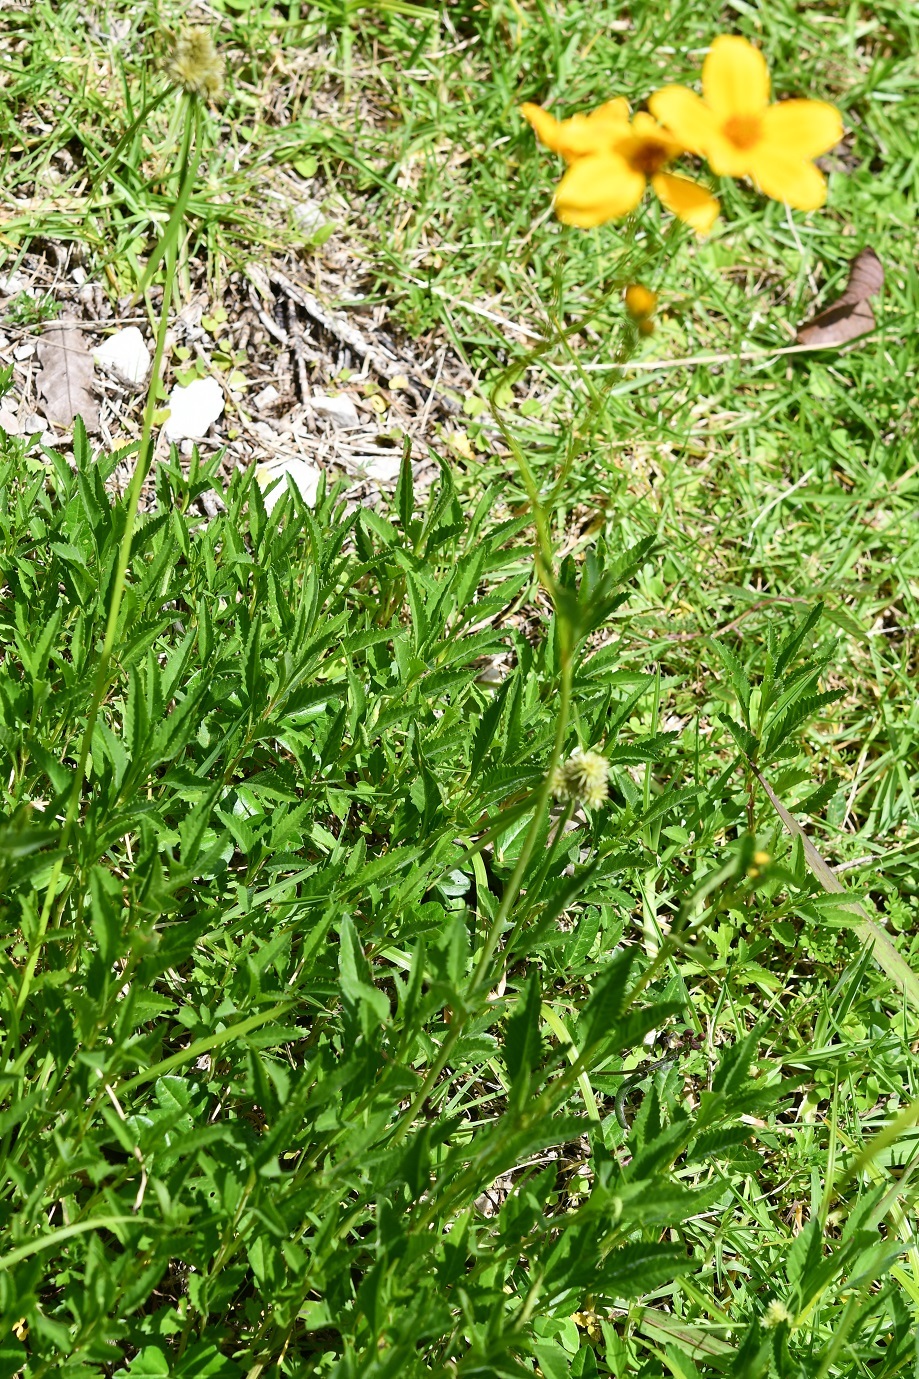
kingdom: Plantae
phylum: Tracheophyta
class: Magnoliopsida
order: Asterales
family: Asteraceae
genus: Bidens
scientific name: Bidens aurea
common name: Arizona beggar-ticks
